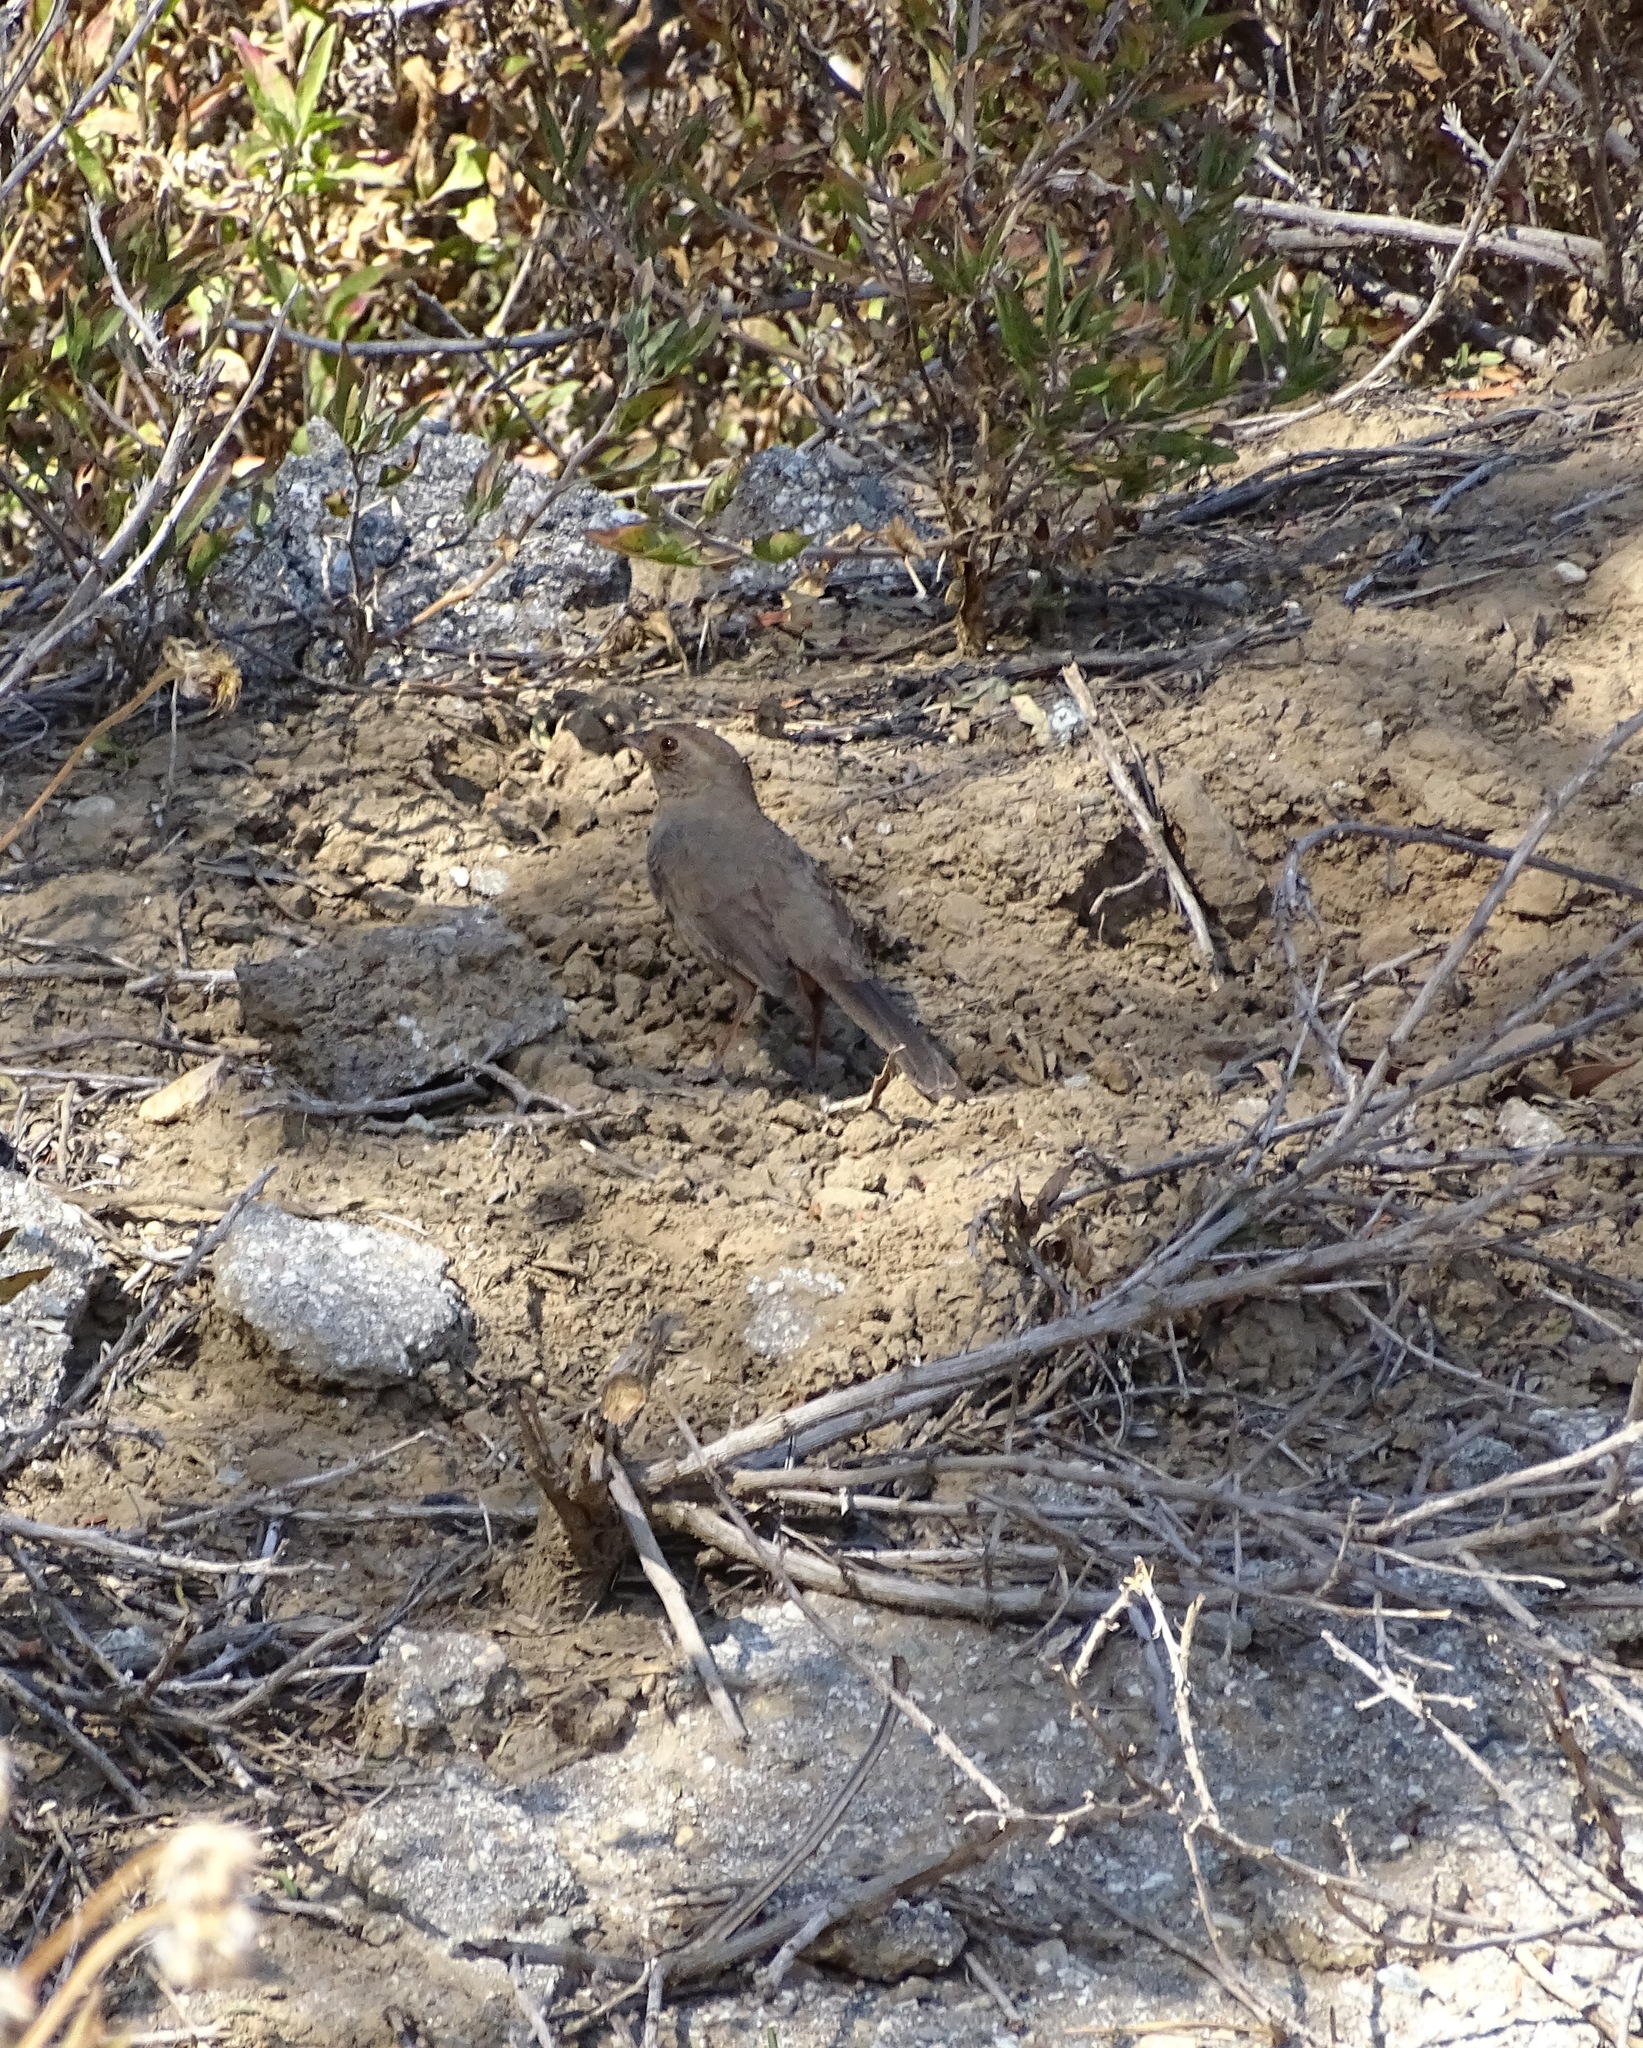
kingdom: Animalia
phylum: Chordata
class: Aves
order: Passeriformes
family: Passerellidae
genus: Melozone
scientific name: Melozone crissalis
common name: California towhee
